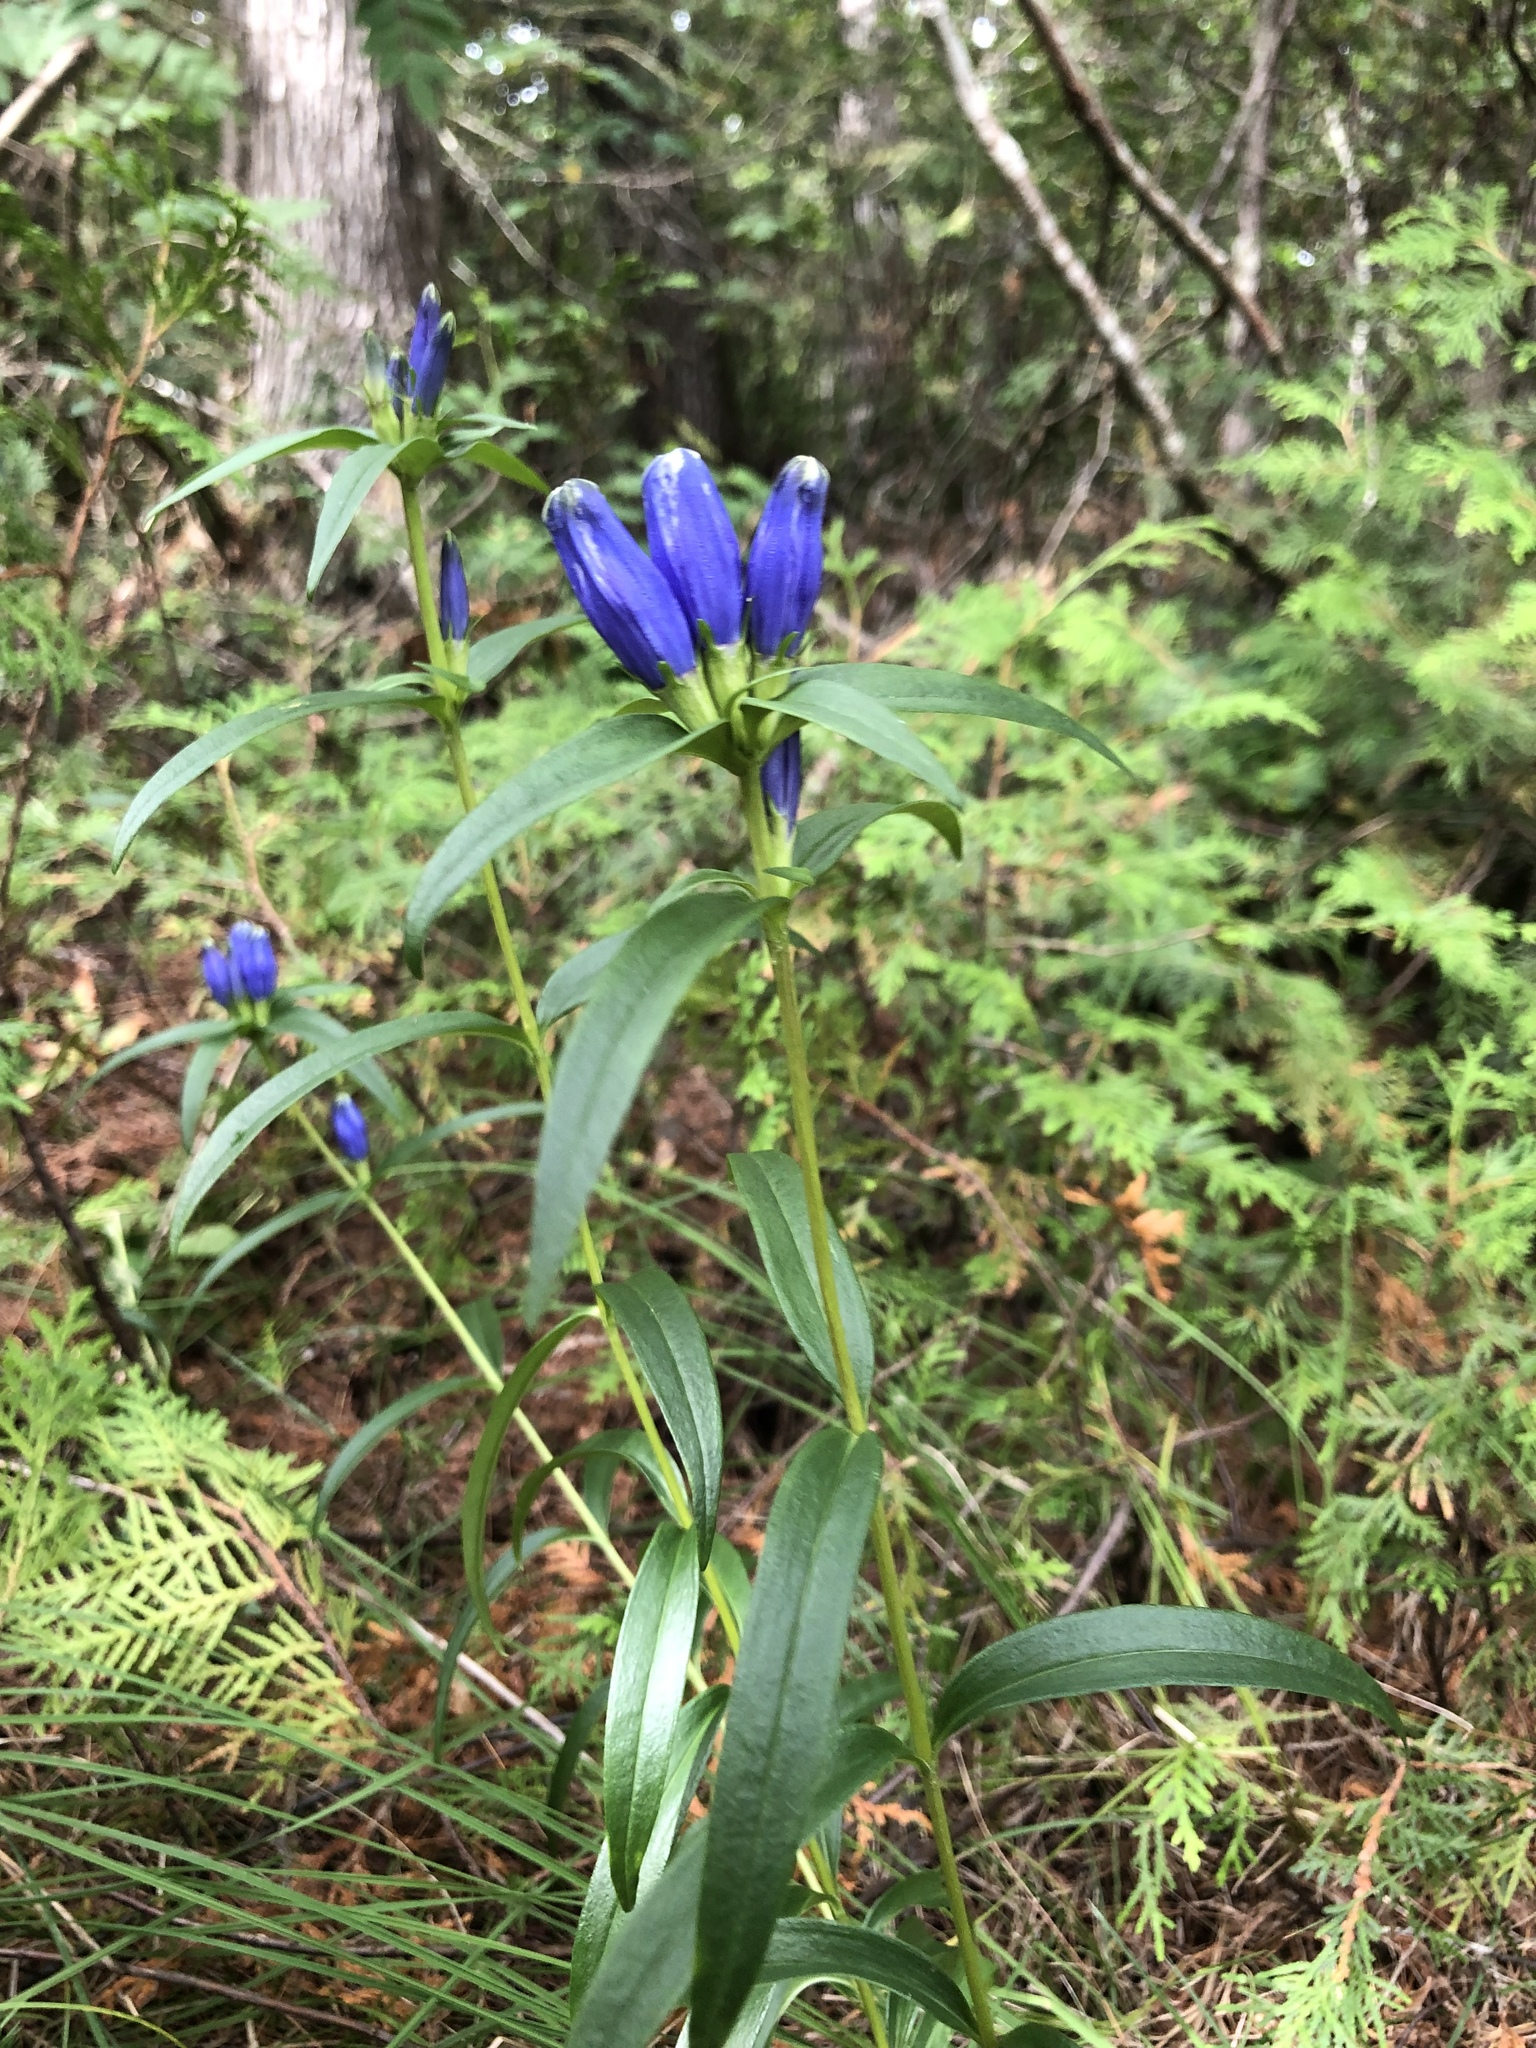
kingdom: Plantae
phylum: Tracheophyta
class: Magnoliopsida
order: Gentianales
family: Gentianaceae
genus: Gentiana
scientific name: Gentiana linearis
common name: Bastard gentian
